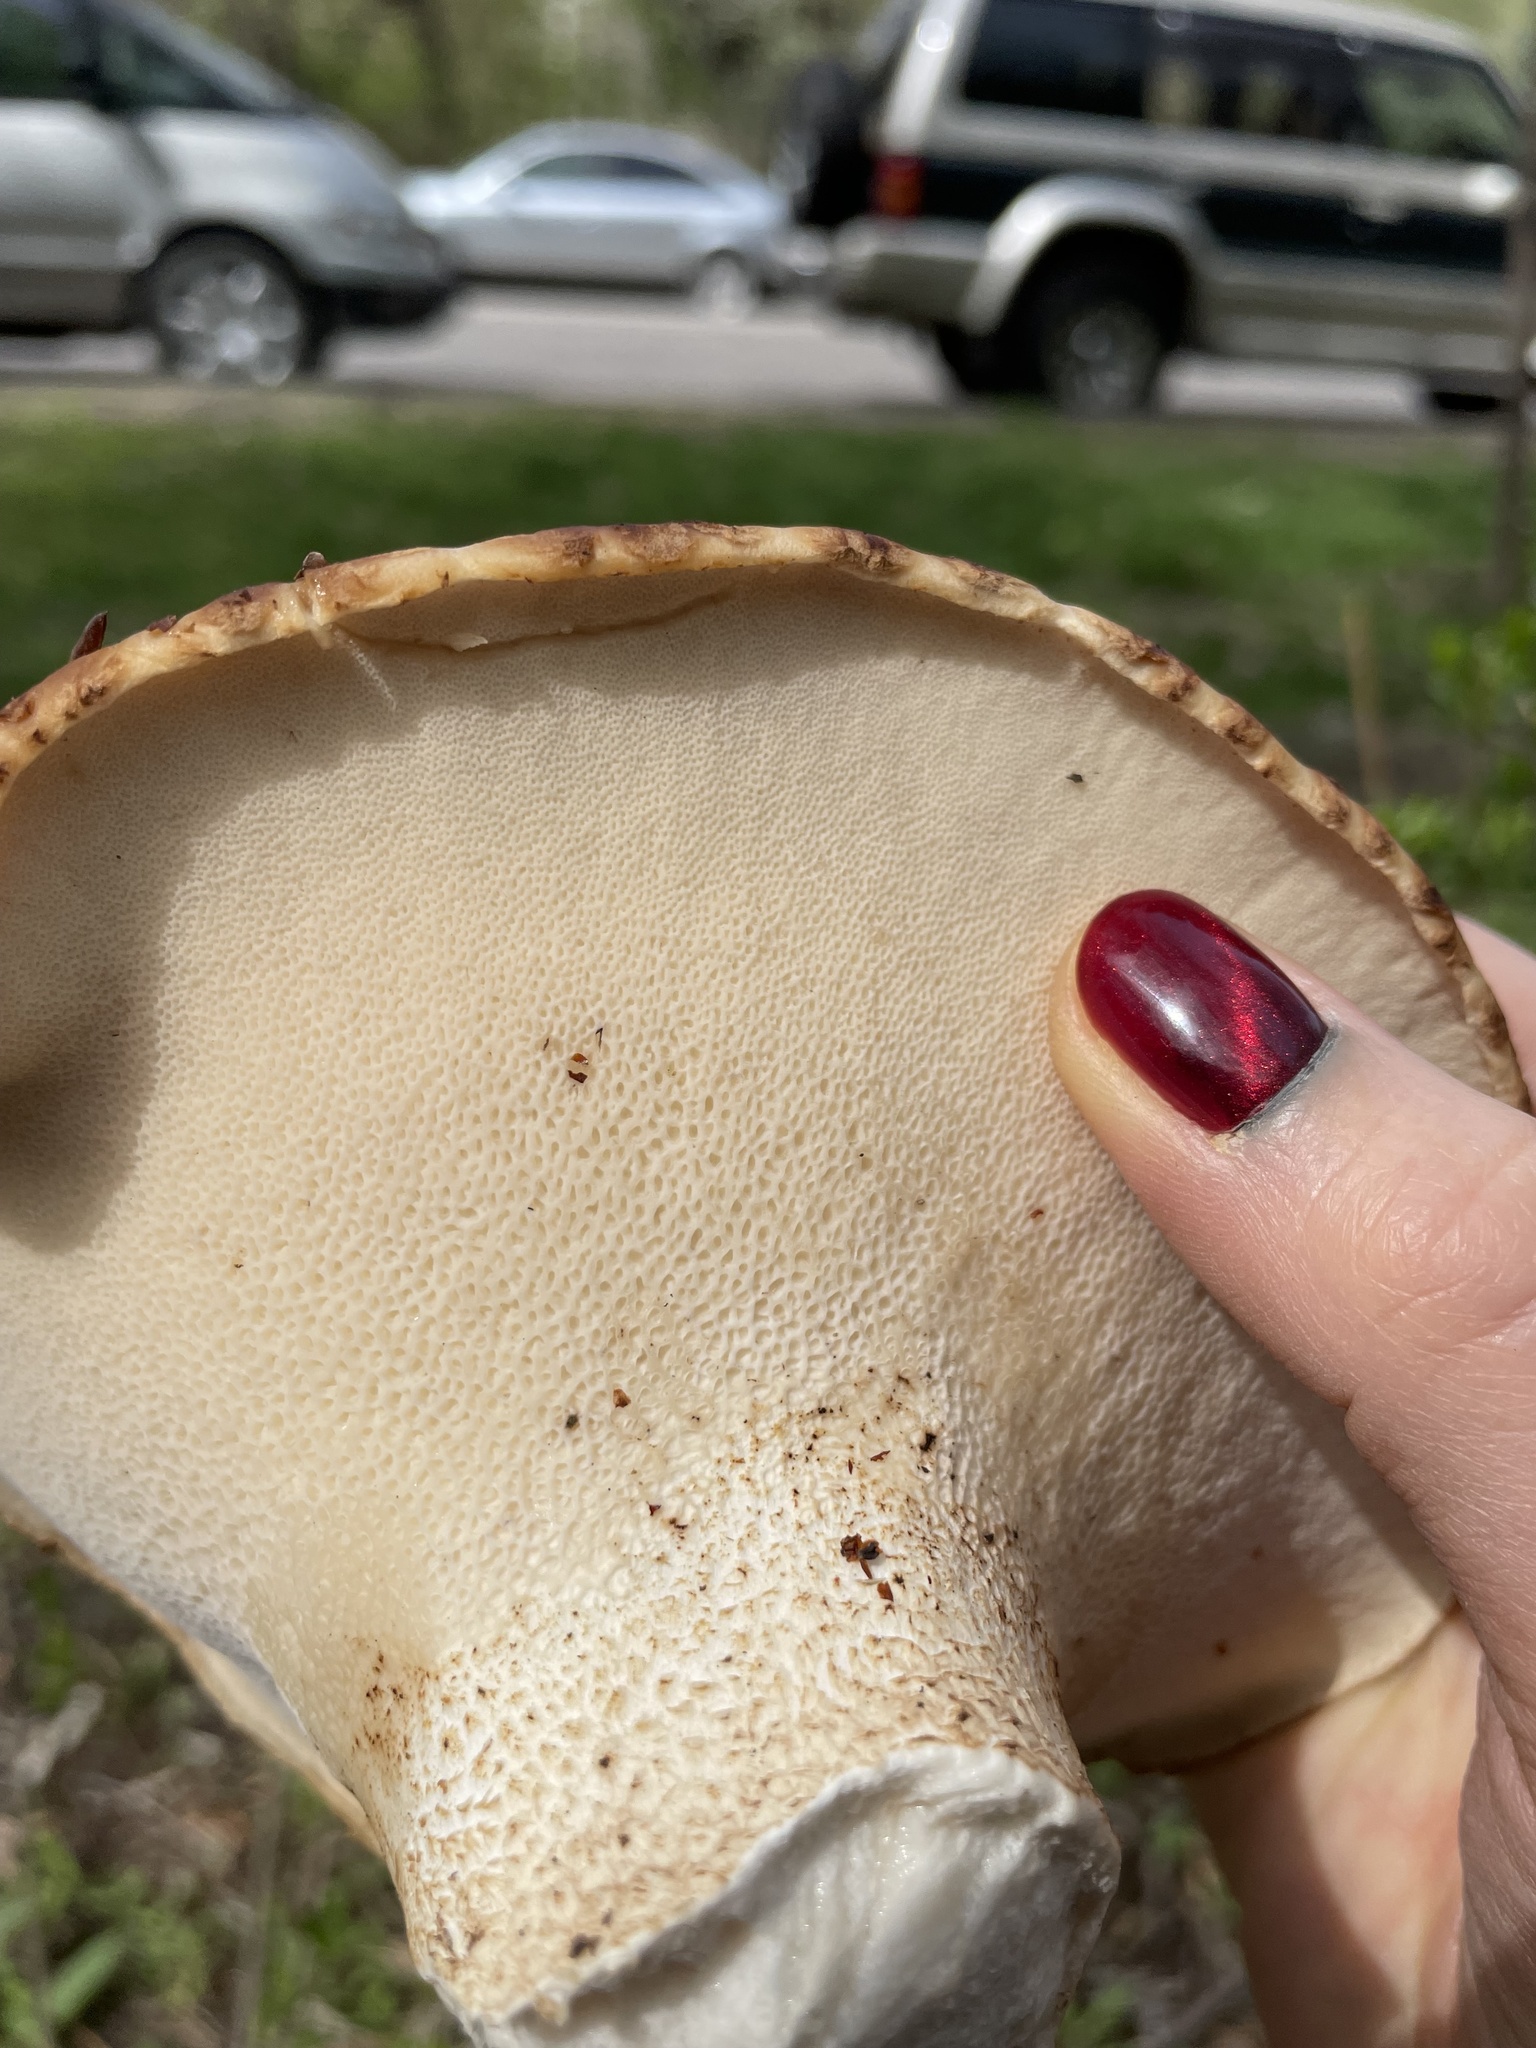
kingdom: Fungi
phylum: Basidiomycota
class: Agaricomycetes
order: Polyporales
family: Polyporaceae
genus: Cerioporus
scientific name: Cerioporus squamosus
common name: Dryad's saddle
